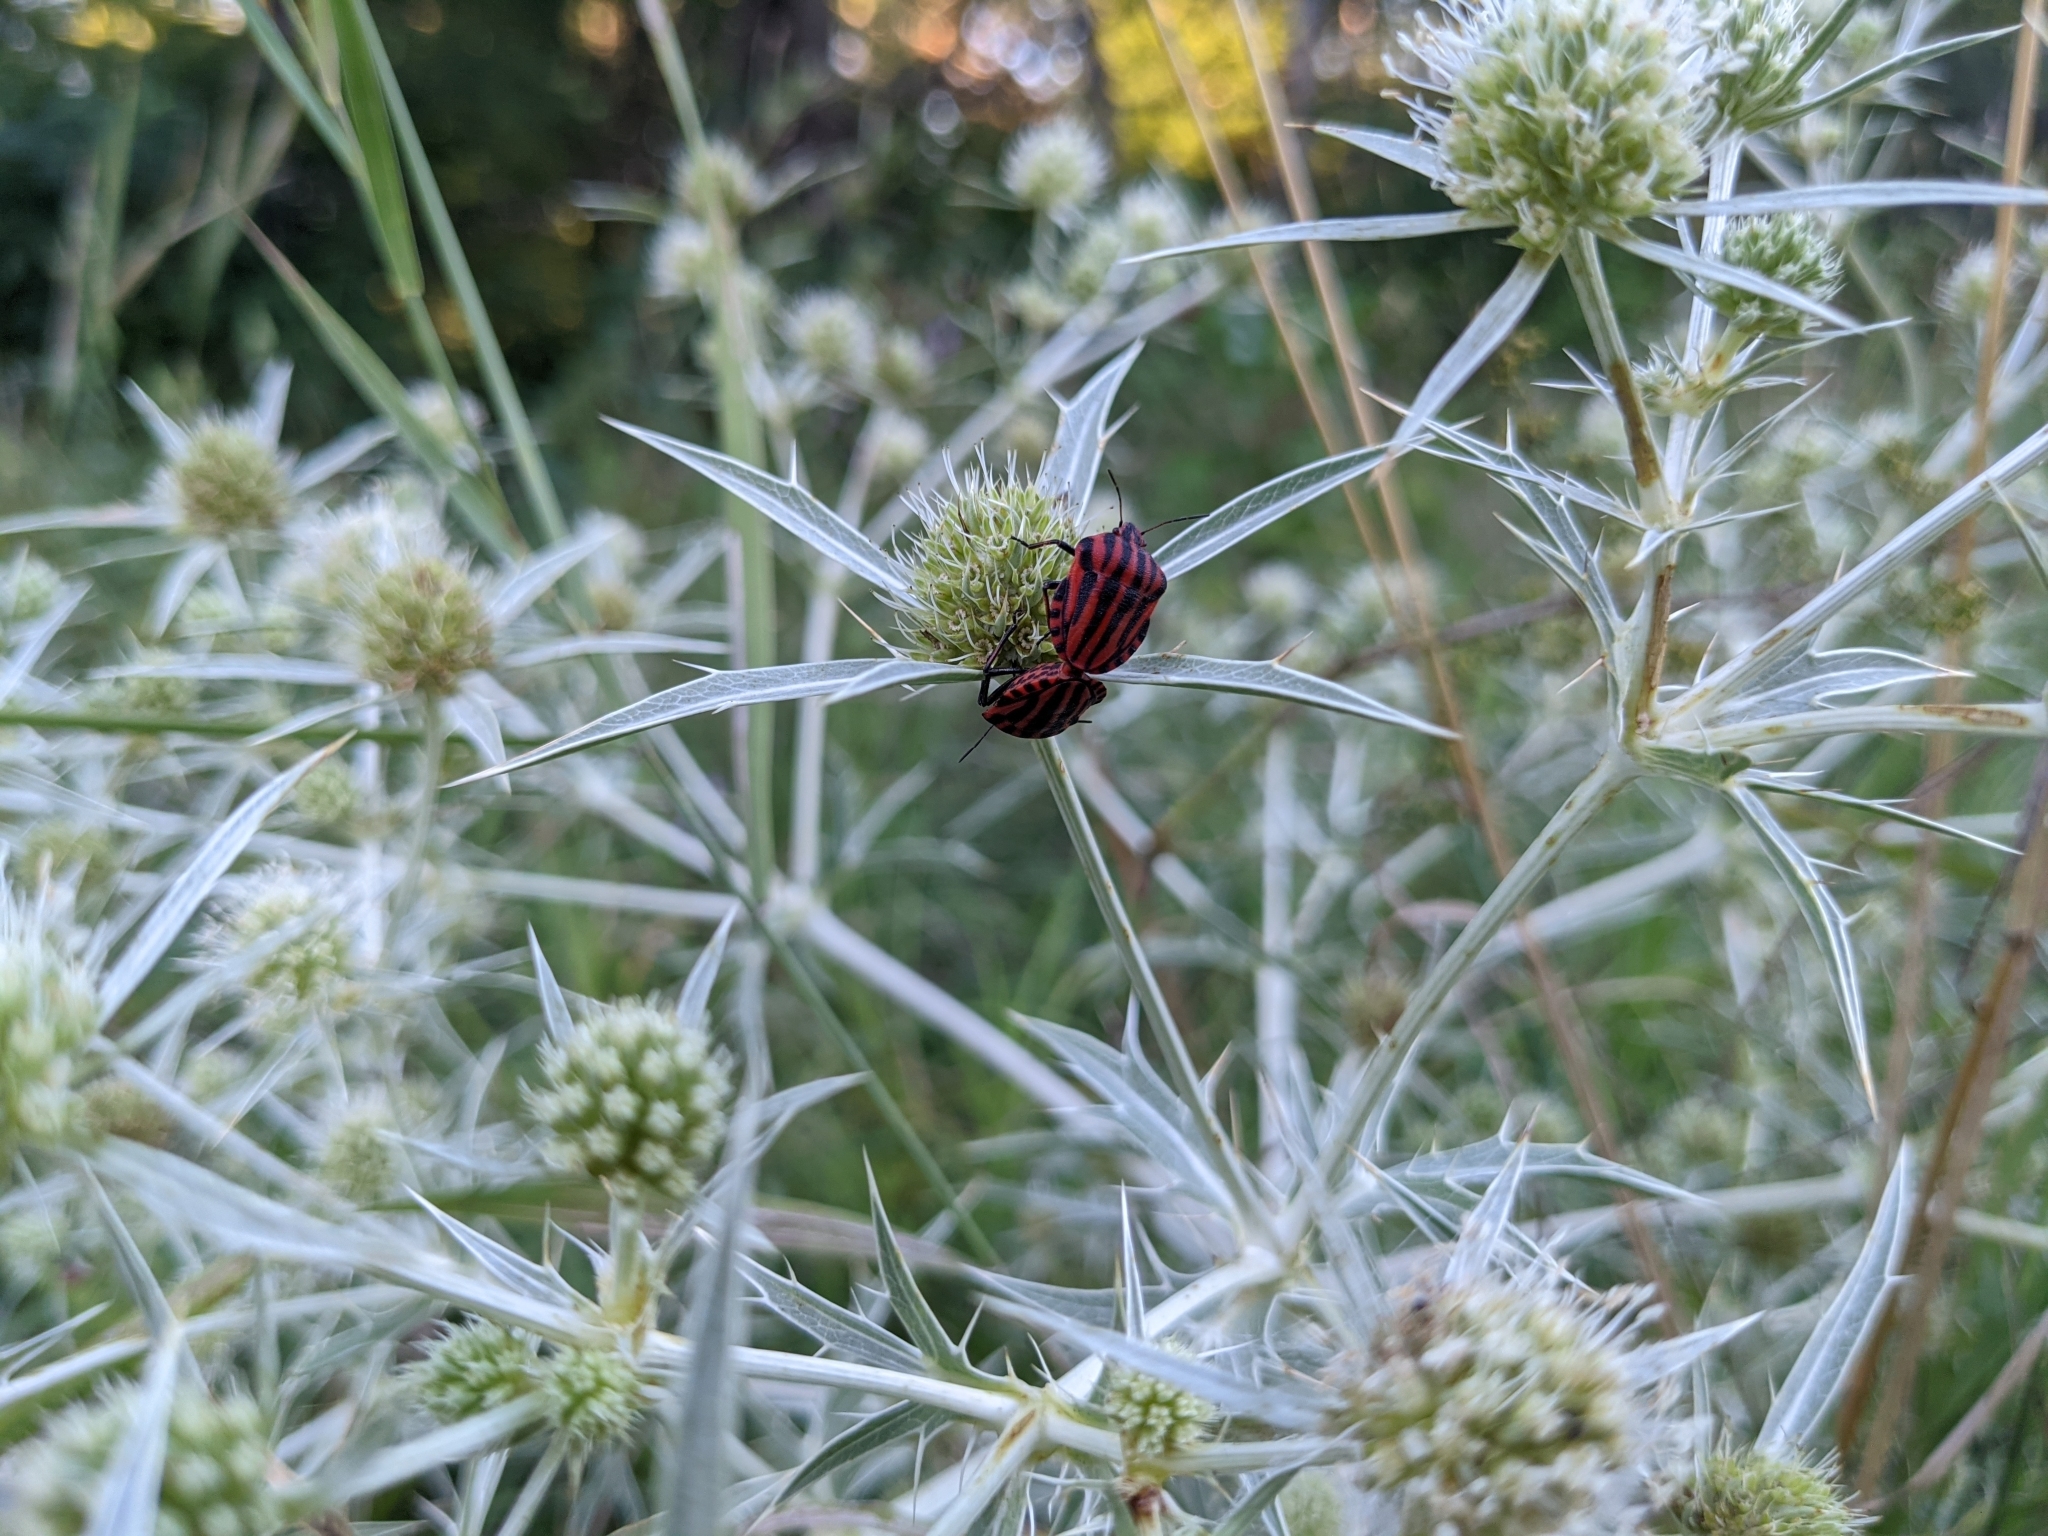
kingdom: Animalia
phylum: Arthropoda
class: Insecta
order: Hemiptera
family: Pentatomidae
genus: Graphosoma
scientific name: Graphosoma italicum
